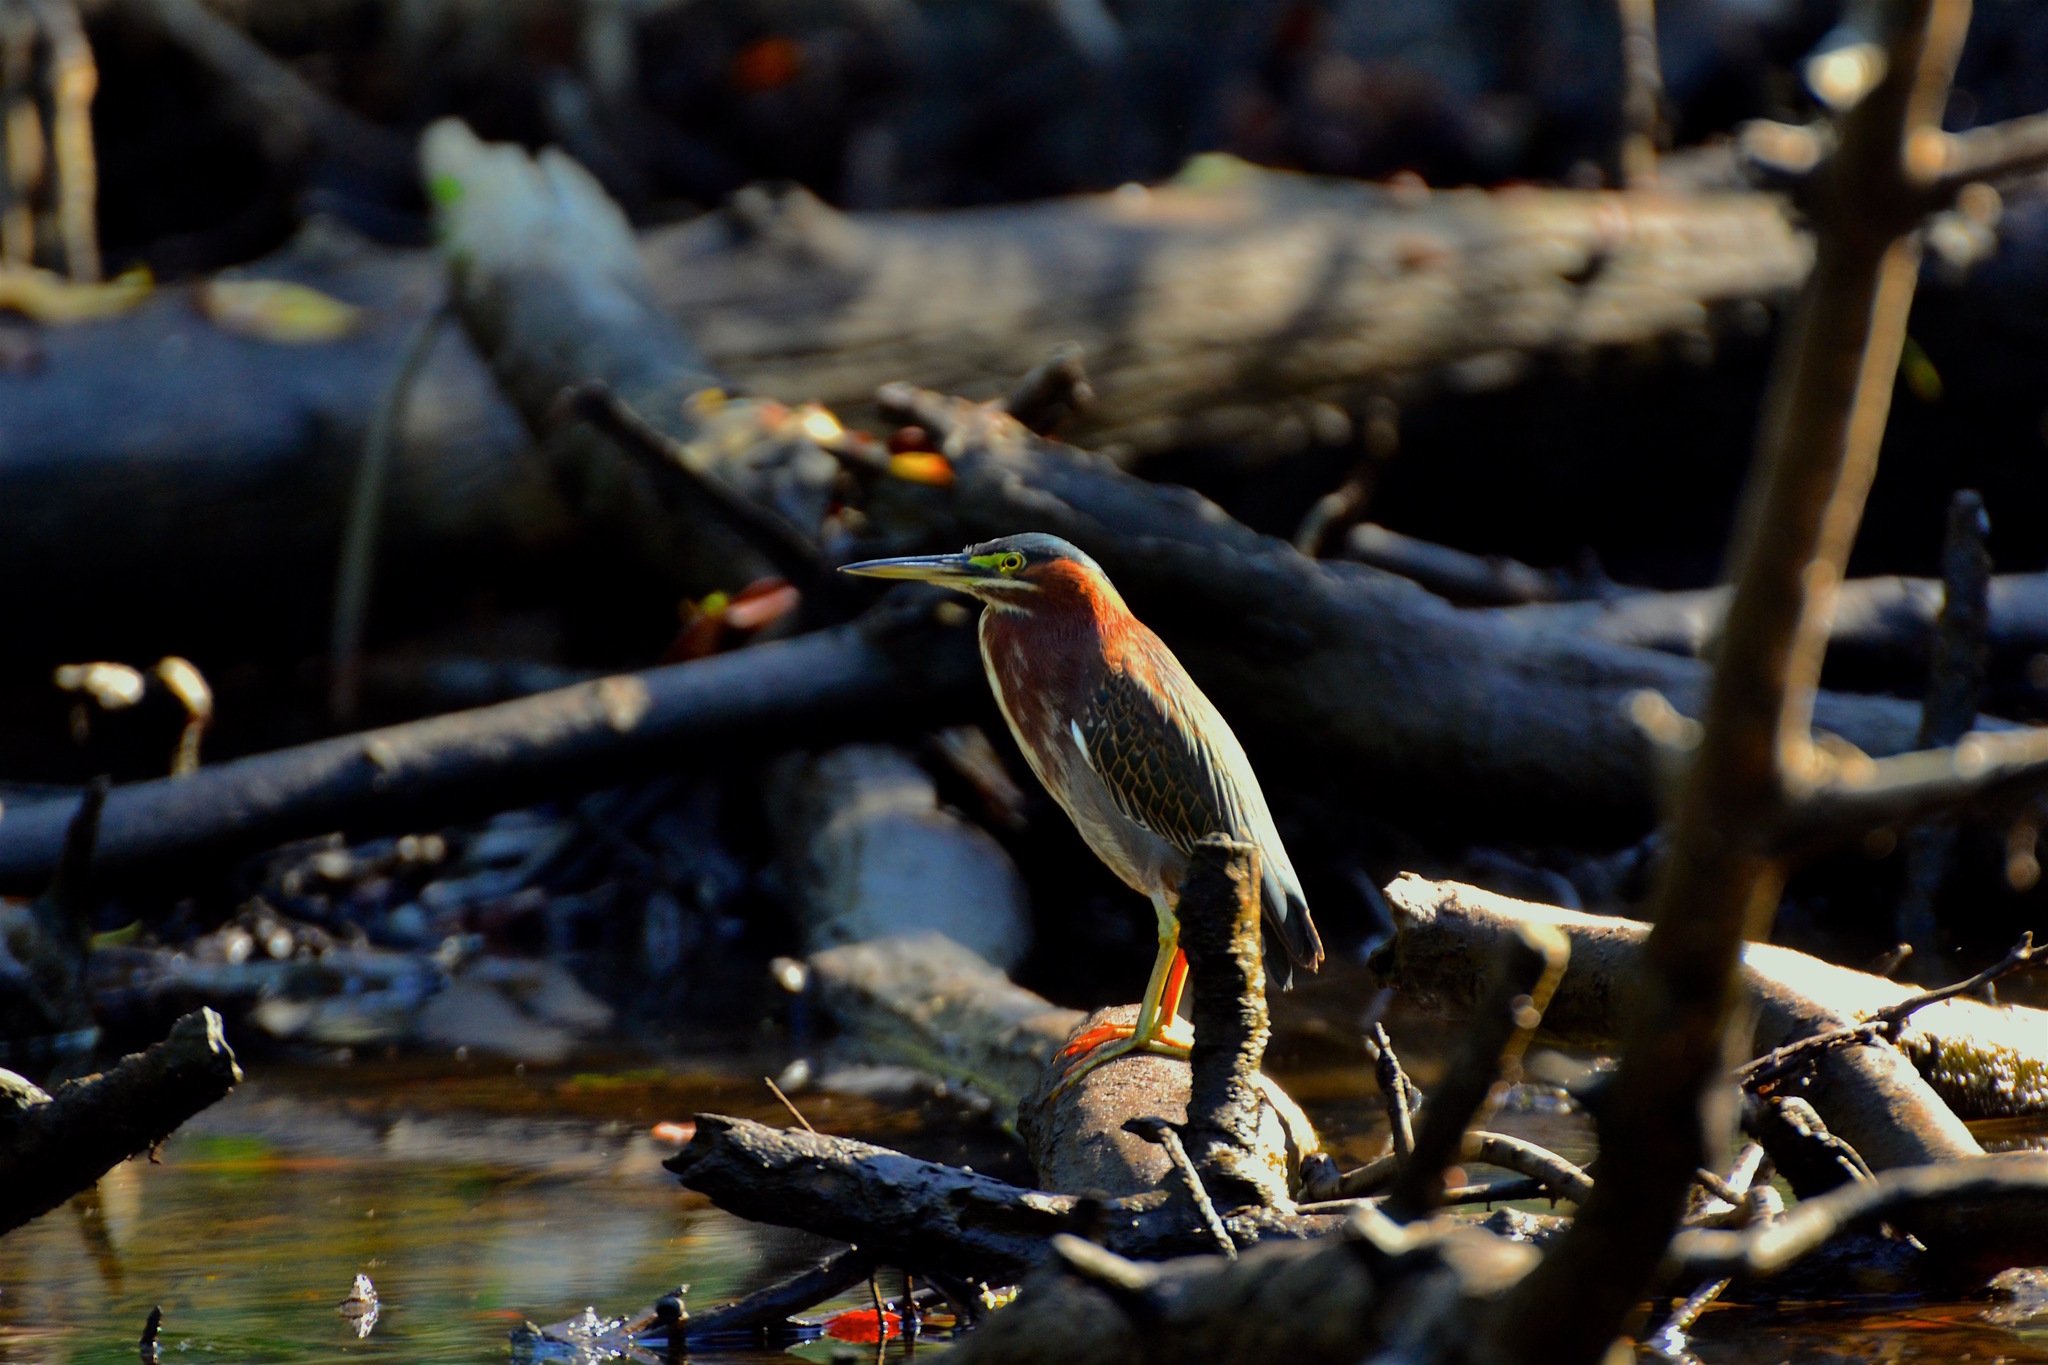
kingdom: Animalia
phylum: Chordata
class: Aves
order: Pelecaniformes
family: Ardeidae
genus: Butorides
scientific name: Butorides virescens
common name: Green heron
